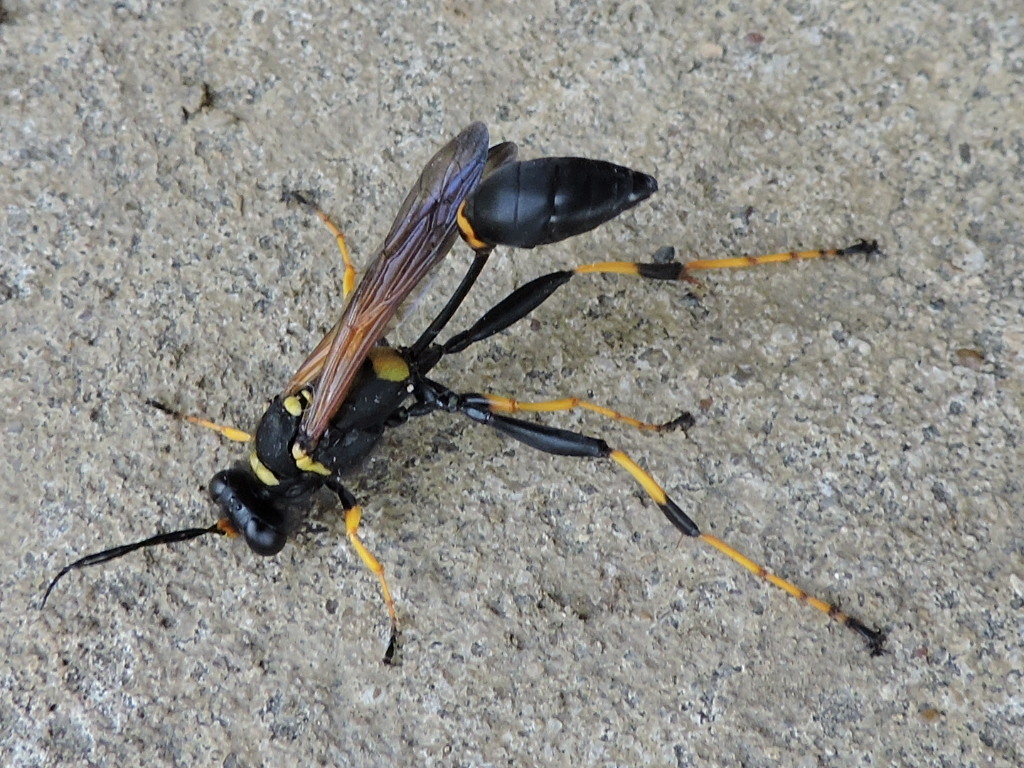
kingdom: Animalia
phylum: Arthropoda
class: Insecta
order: Hymenoptera
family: Sphecidae
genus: Sceliphron
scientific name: Sceliphron caementarium
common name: Mud dauber
